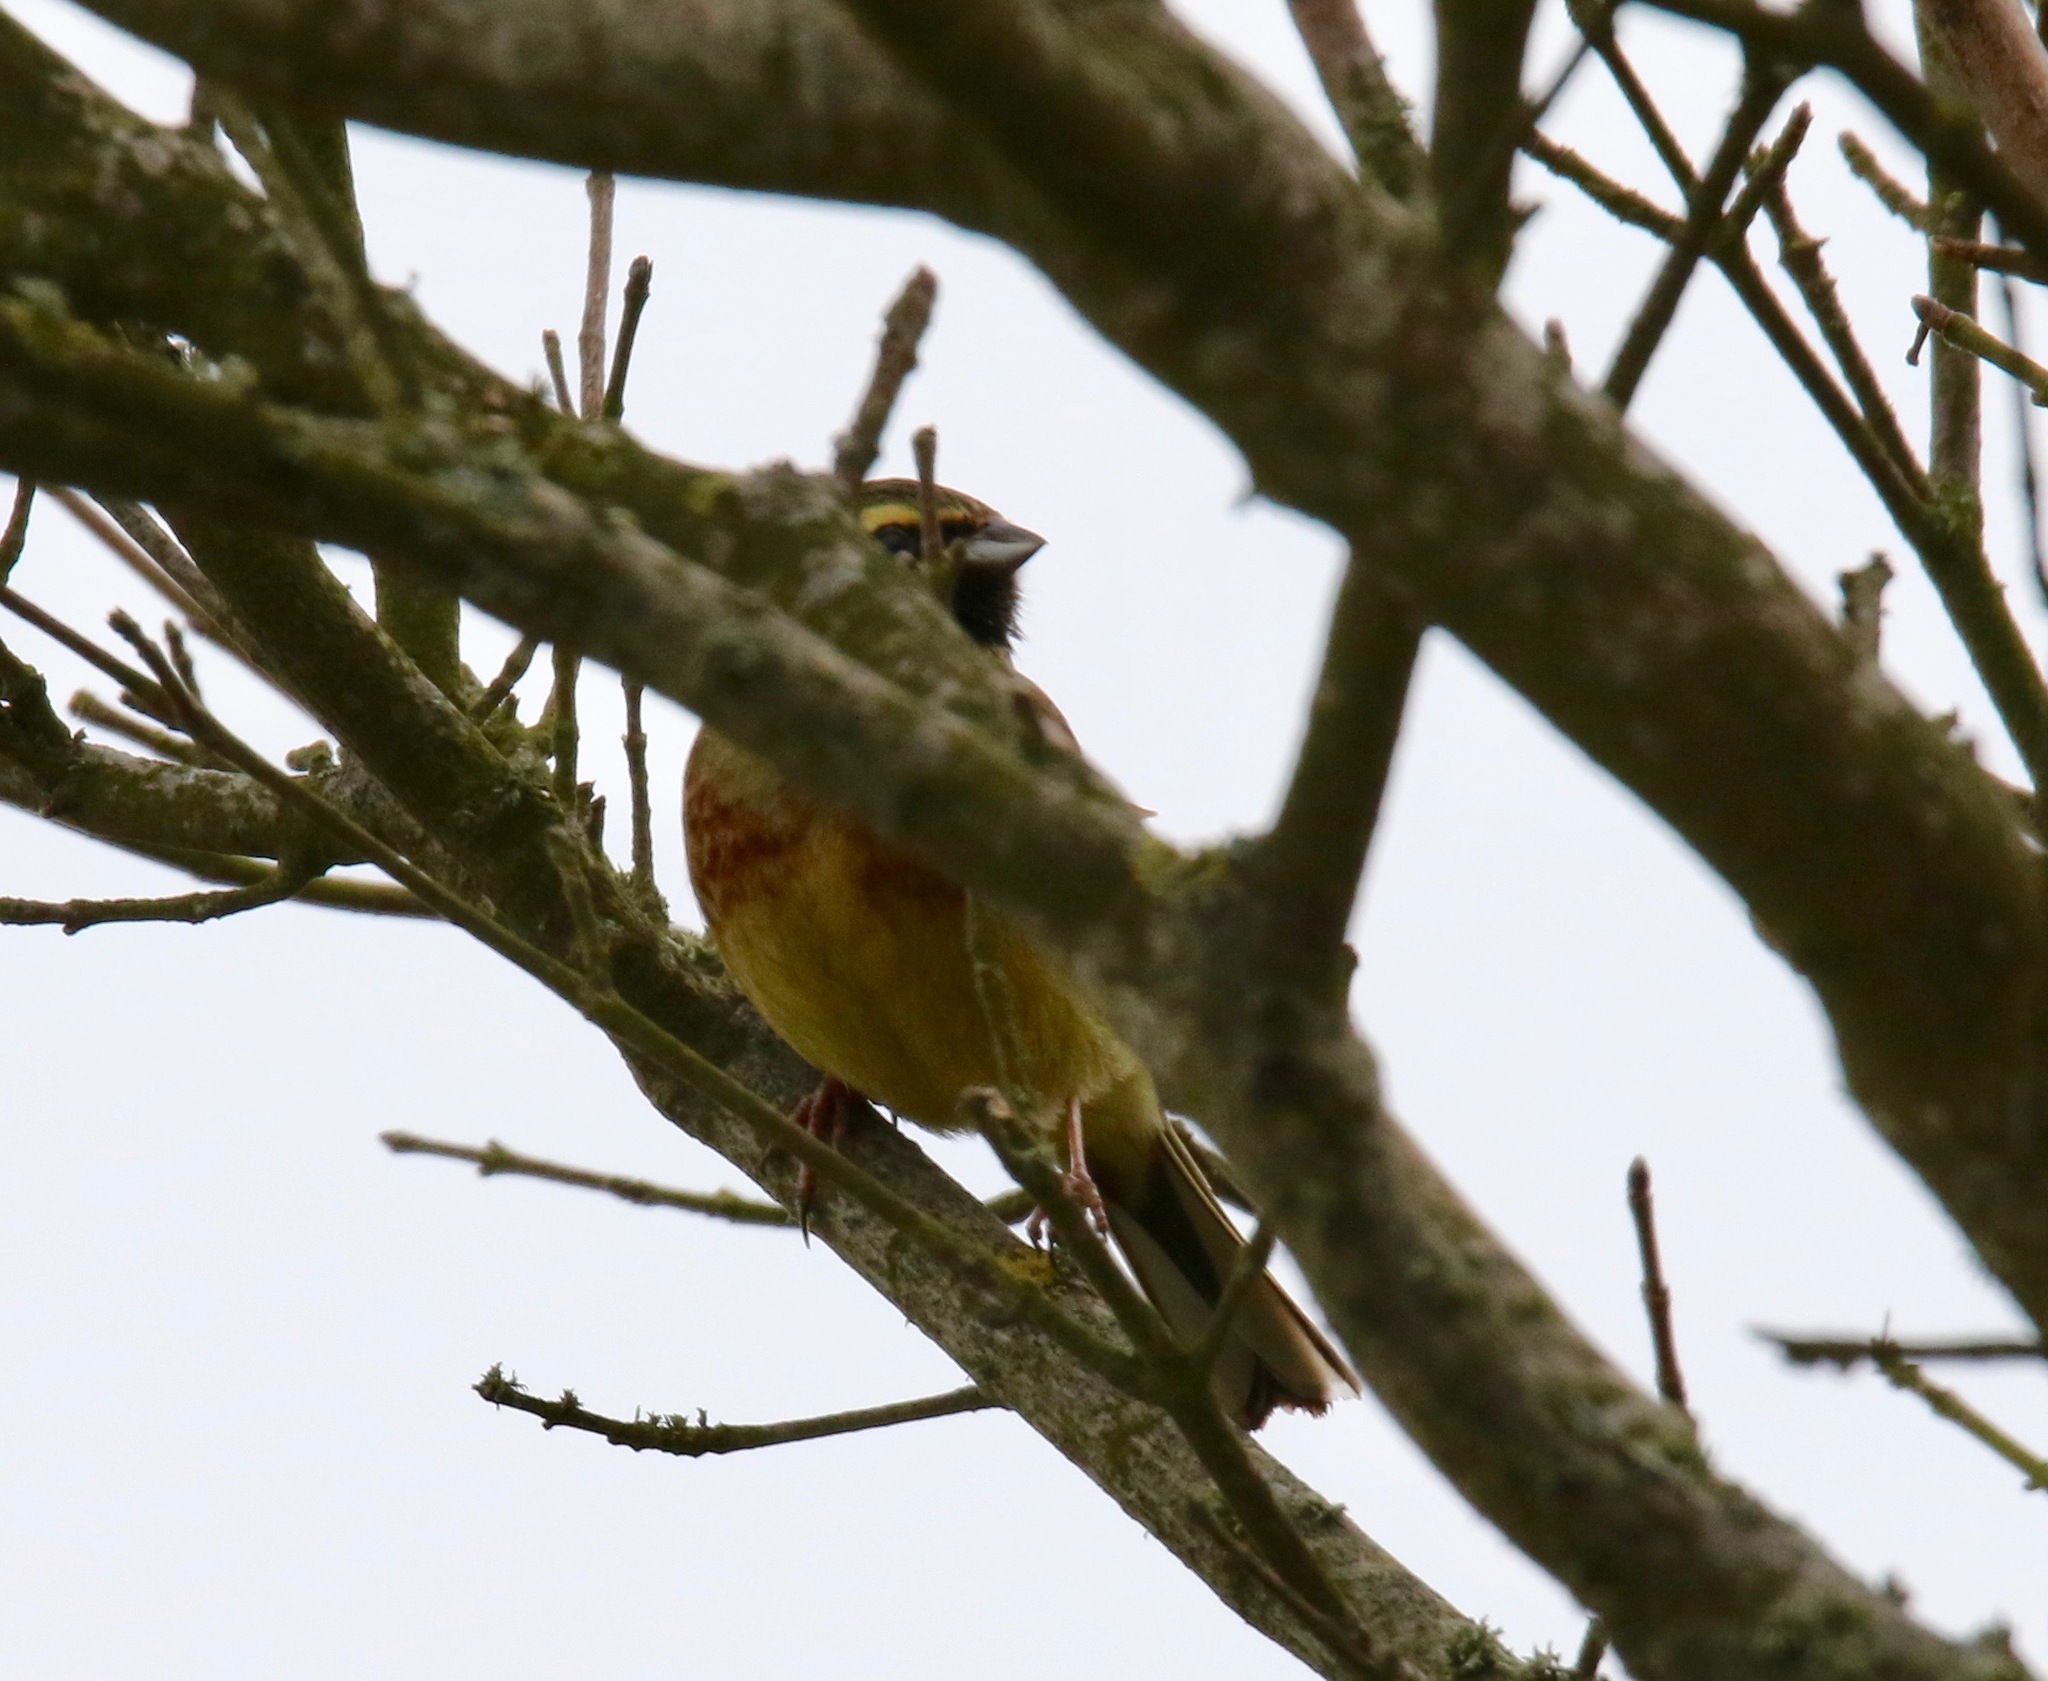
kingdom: Animalia
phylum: Chordata
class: Aves
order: Passeriformes
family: Emberizidae
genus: Emberiza
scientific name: Emberiza cirlus
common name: Cirl bunting
